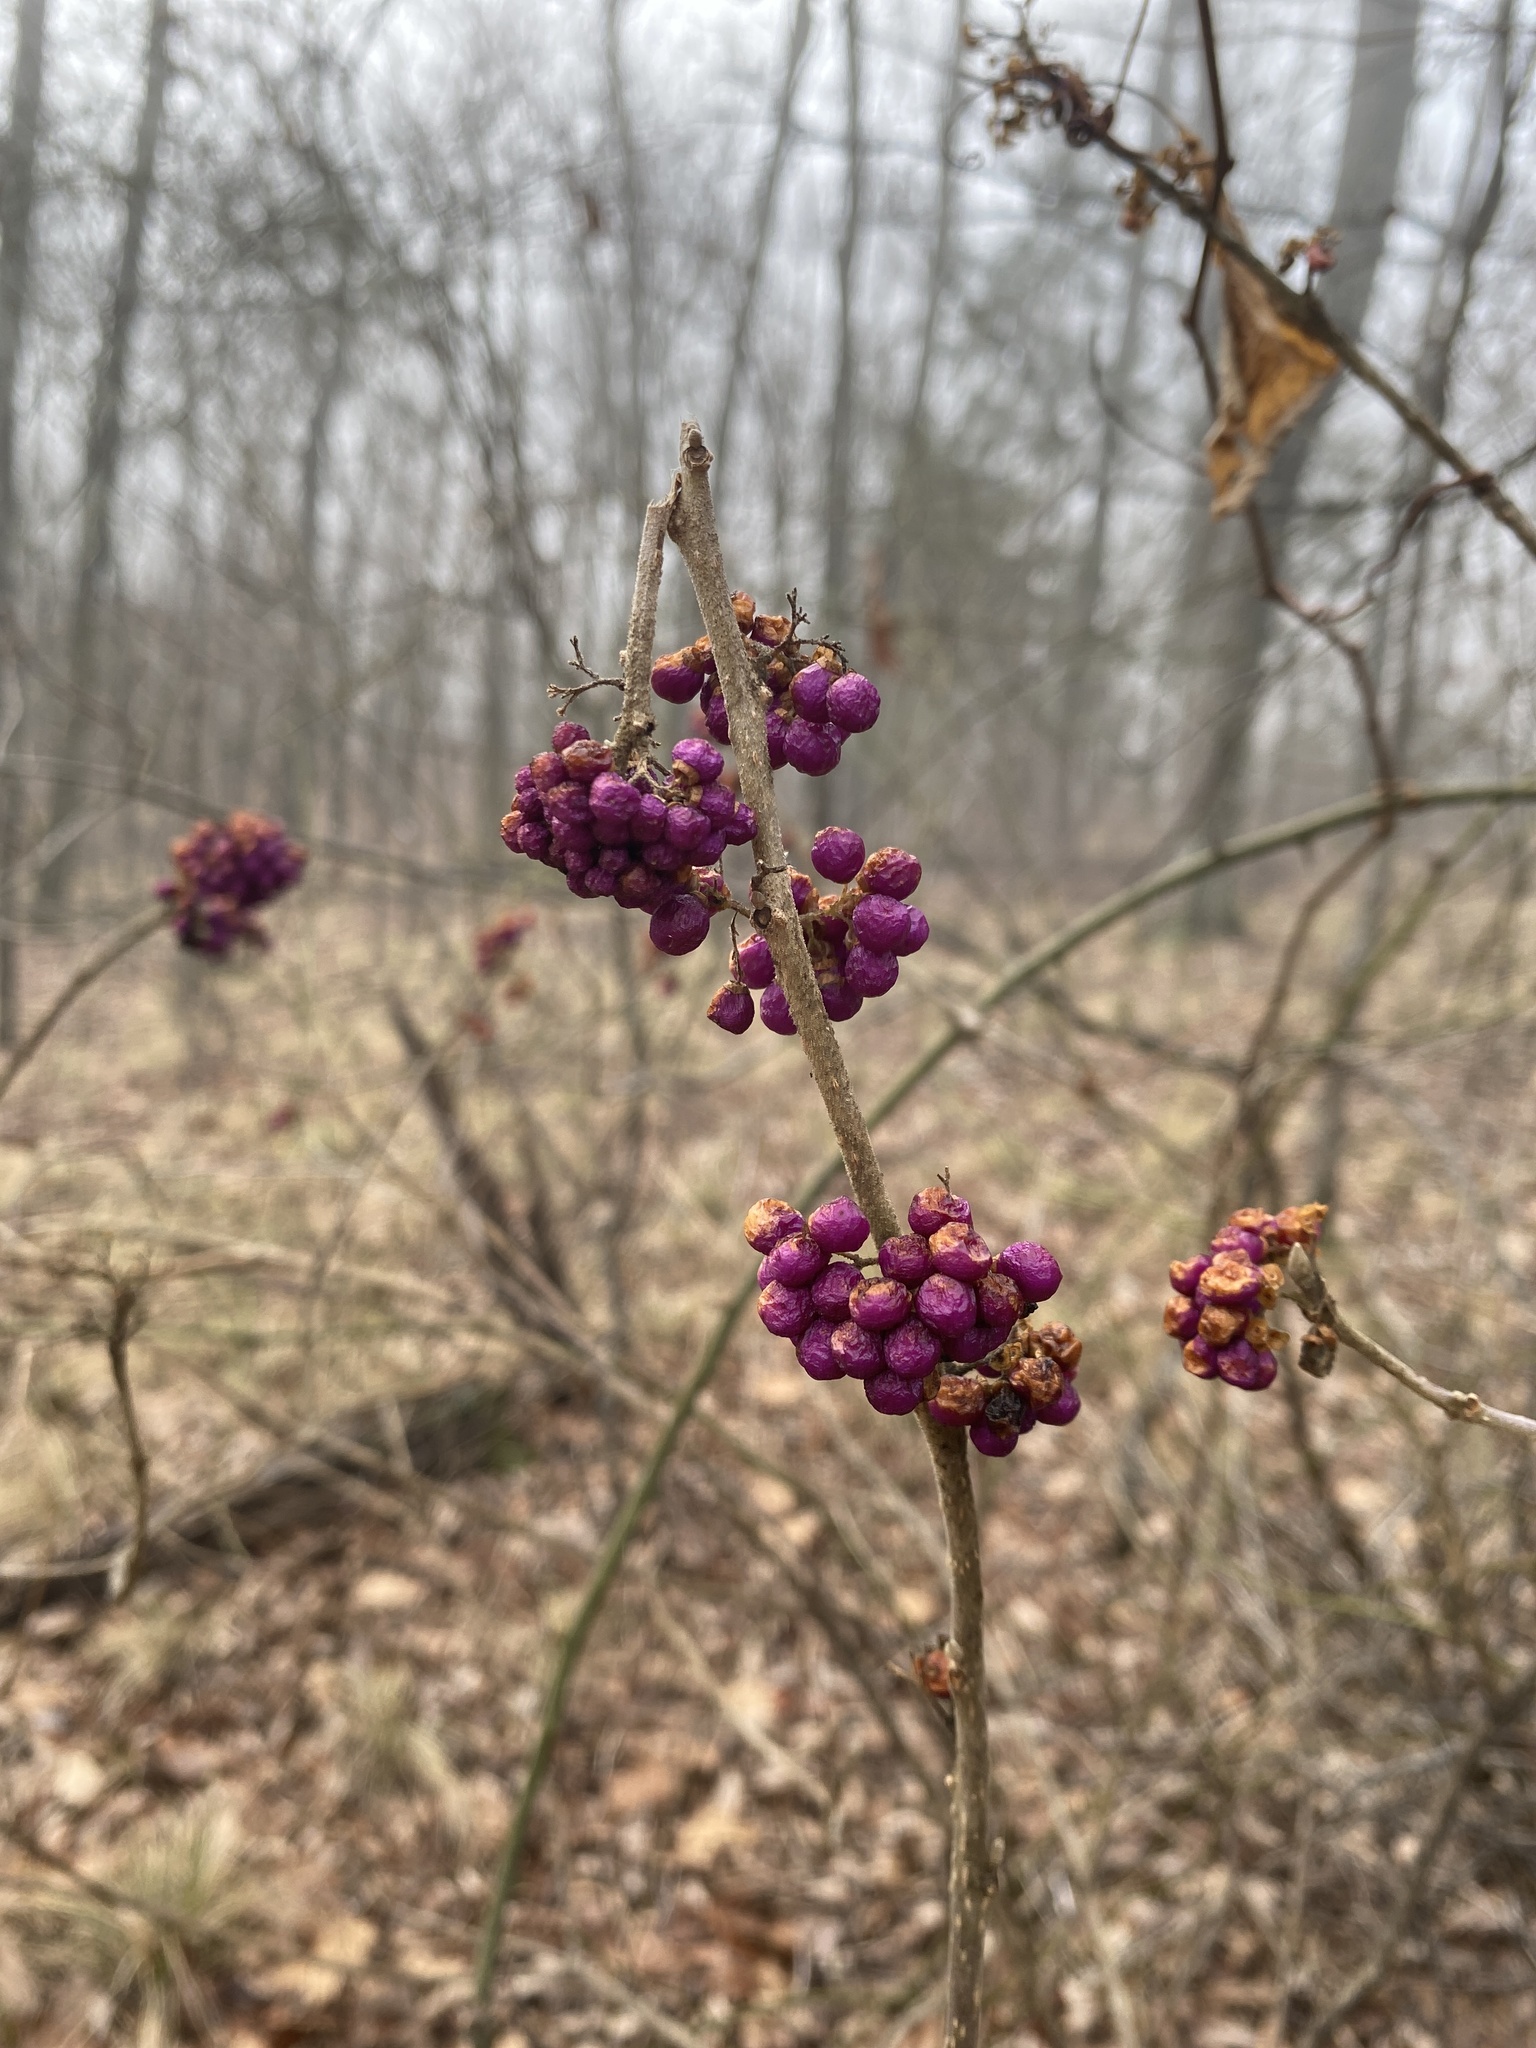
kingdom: Plantae
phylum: Tracheophyta
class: Magnoliopsida
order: Lamiales
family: Lamiaceae
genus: Callicarpa
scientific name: Callicarpa americana
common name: American beautyberry
